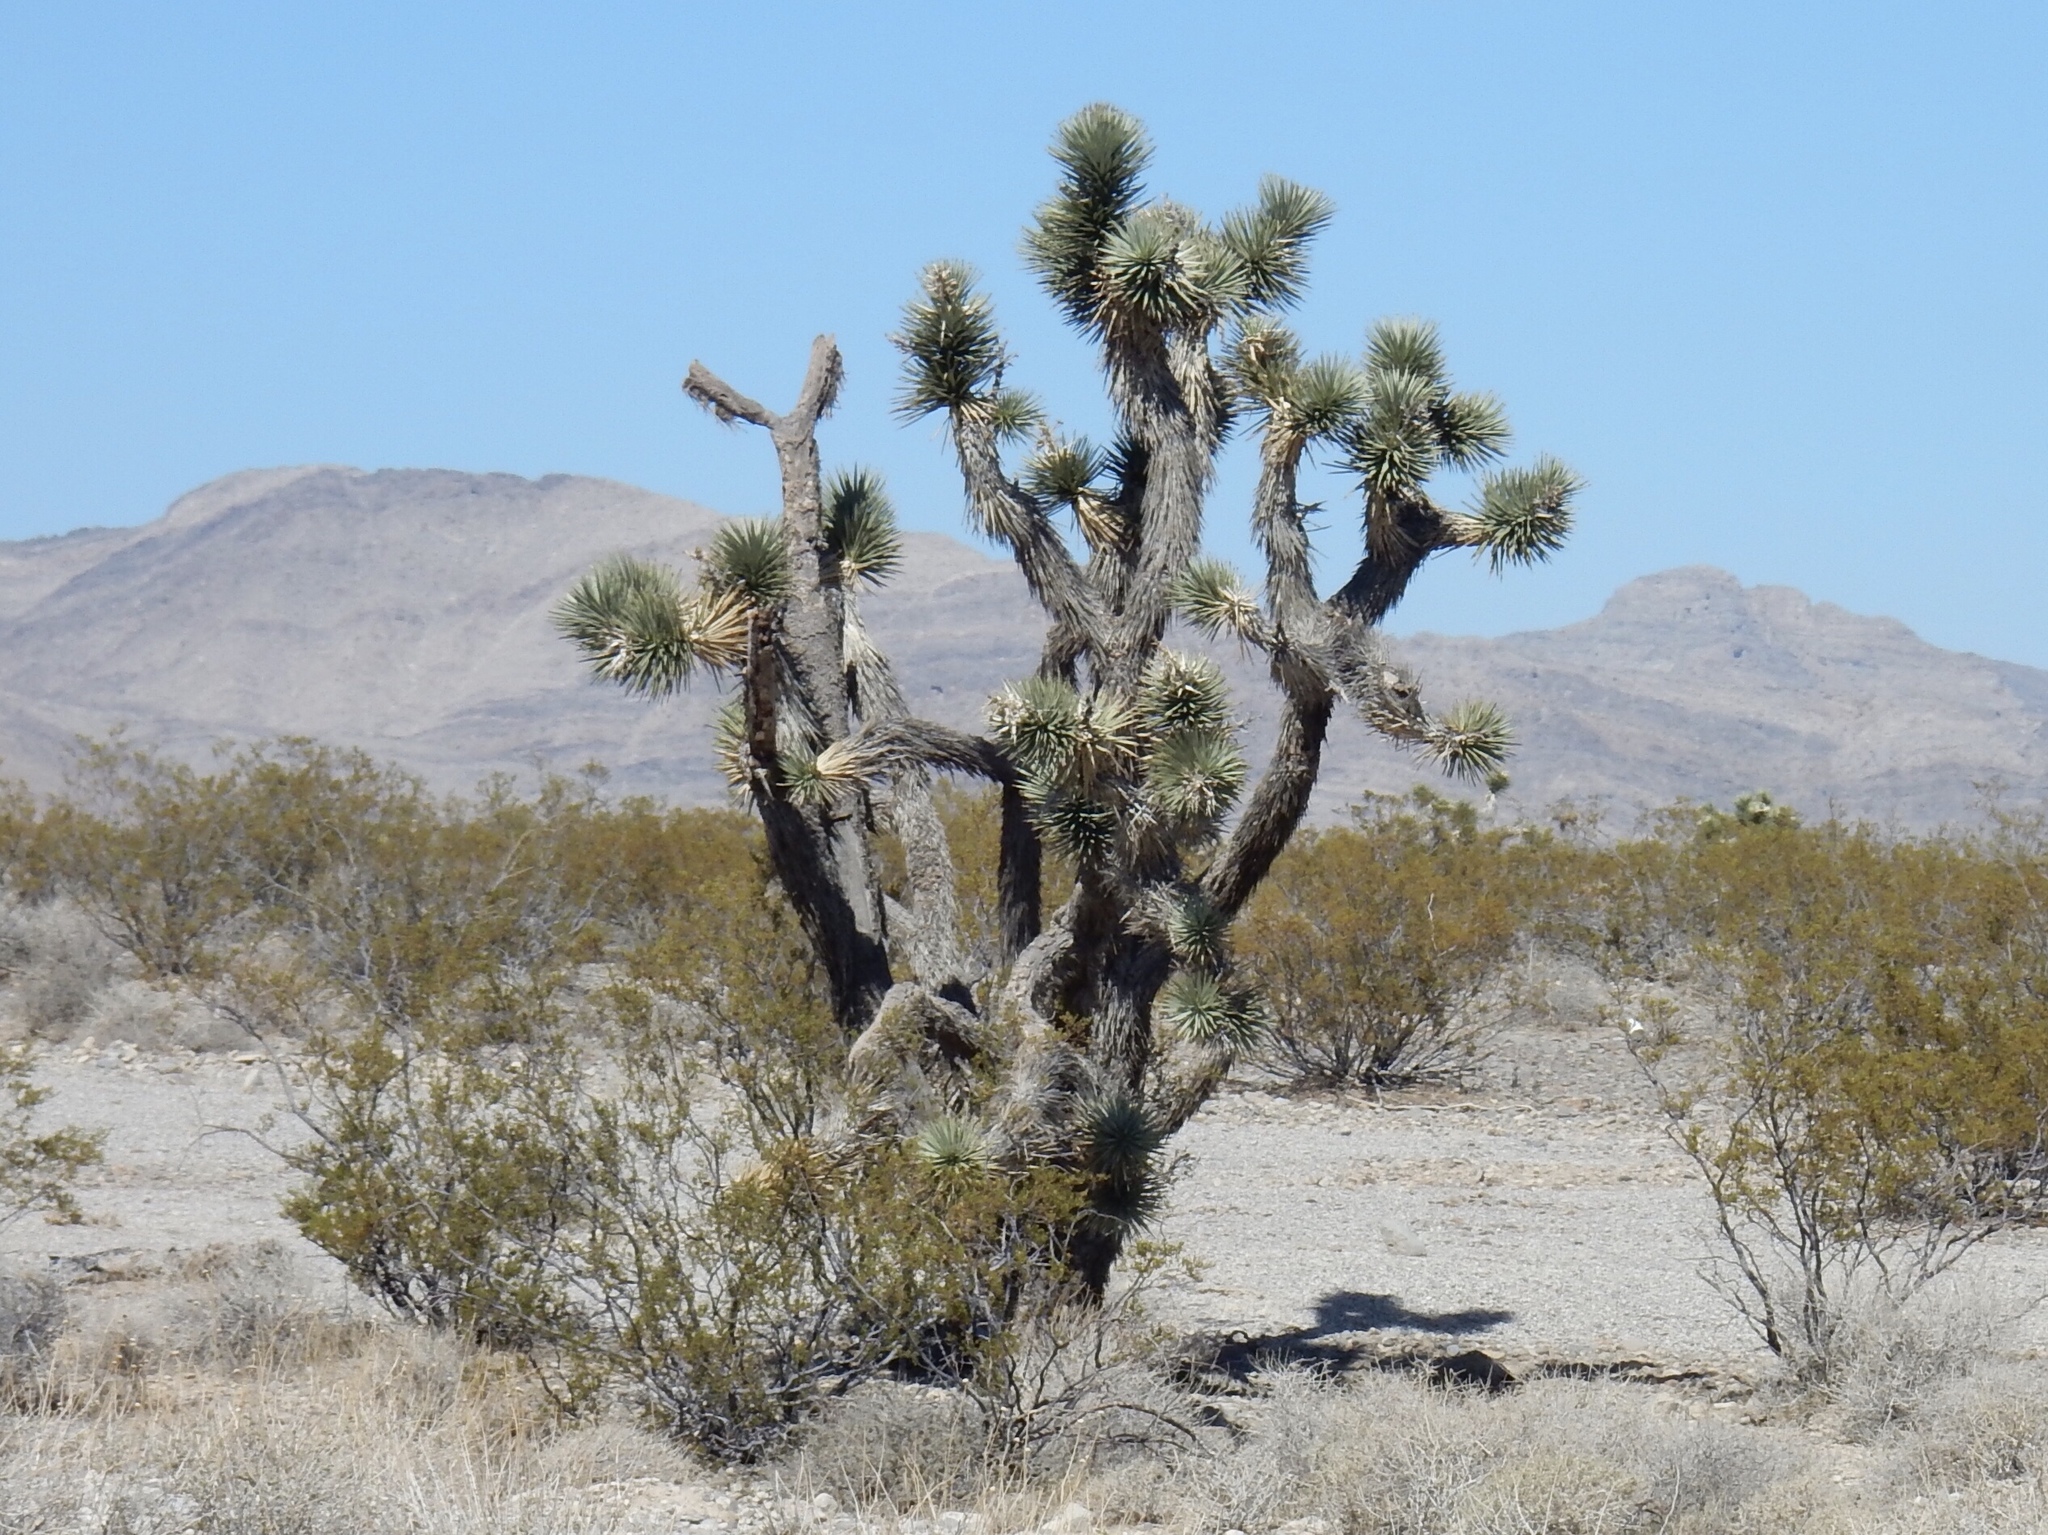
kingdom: Plantae
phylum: Tracheophyta
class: Liliopsida
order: Asparagales
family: Asparagaceae
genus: Yucca
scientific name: Yucca brevifolia
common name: Joshua tree
